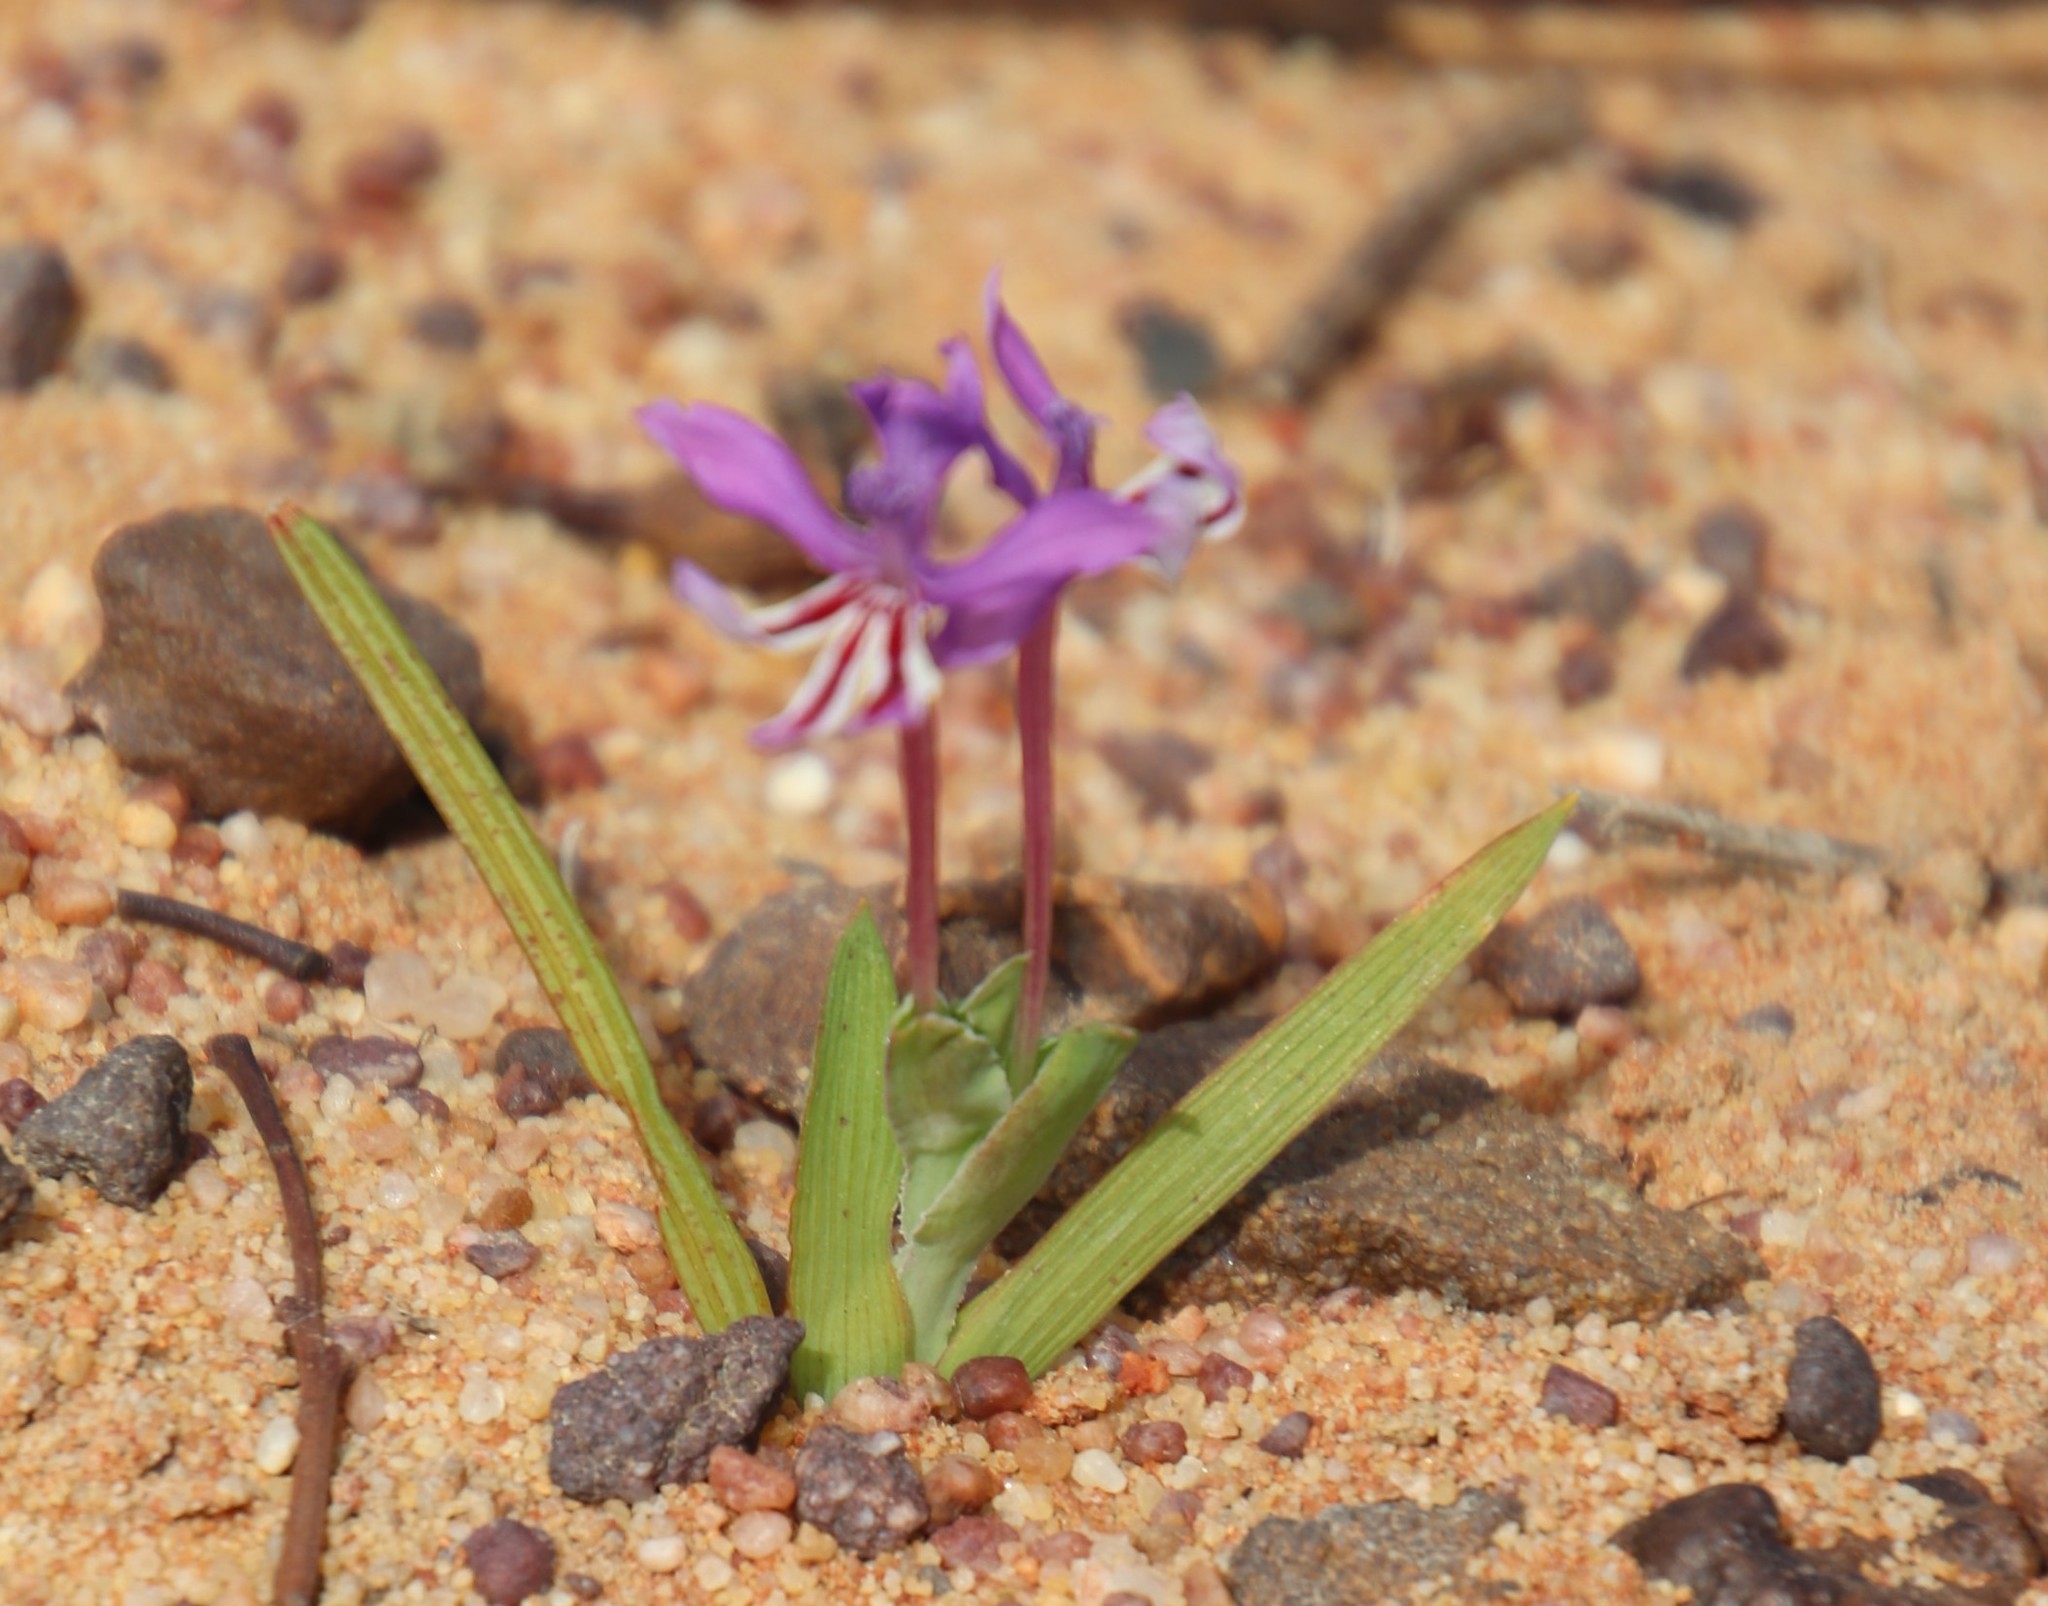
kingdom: Plantae
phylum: Tracheophyta
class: Liliopsida
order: Asparagales
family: Iridaceae
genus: Lapeirousia
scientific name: Lapeirousia jacquinii
